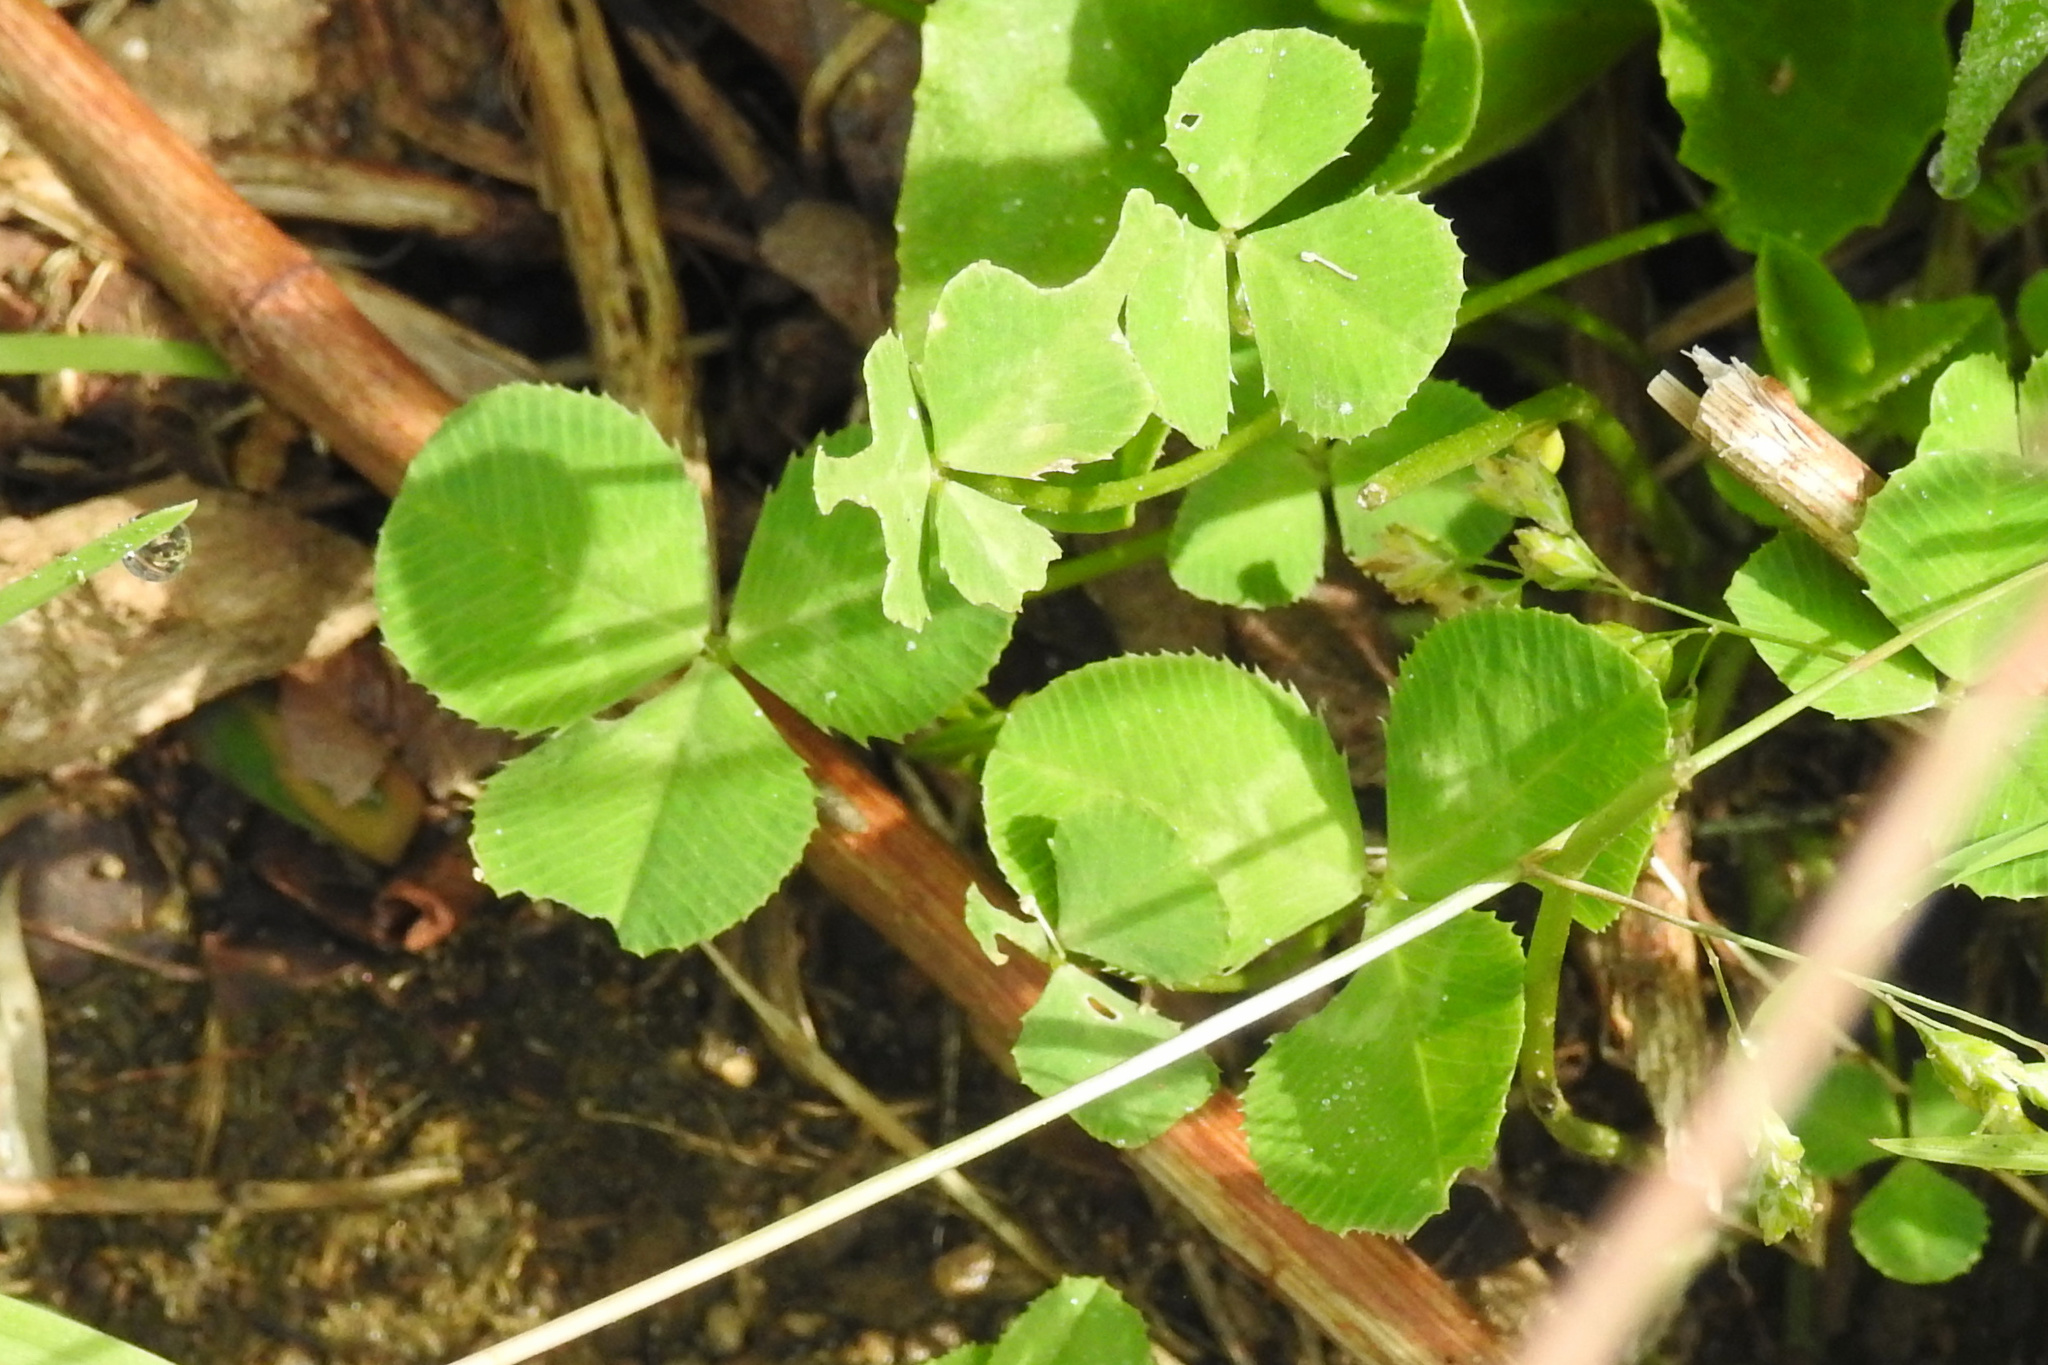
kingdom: Plantae
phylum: Tracheophyta
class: Magnoliopsida
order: Fabales
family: Fabaceae
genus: Trifolium
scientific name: Trifolium repens
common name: White clover
